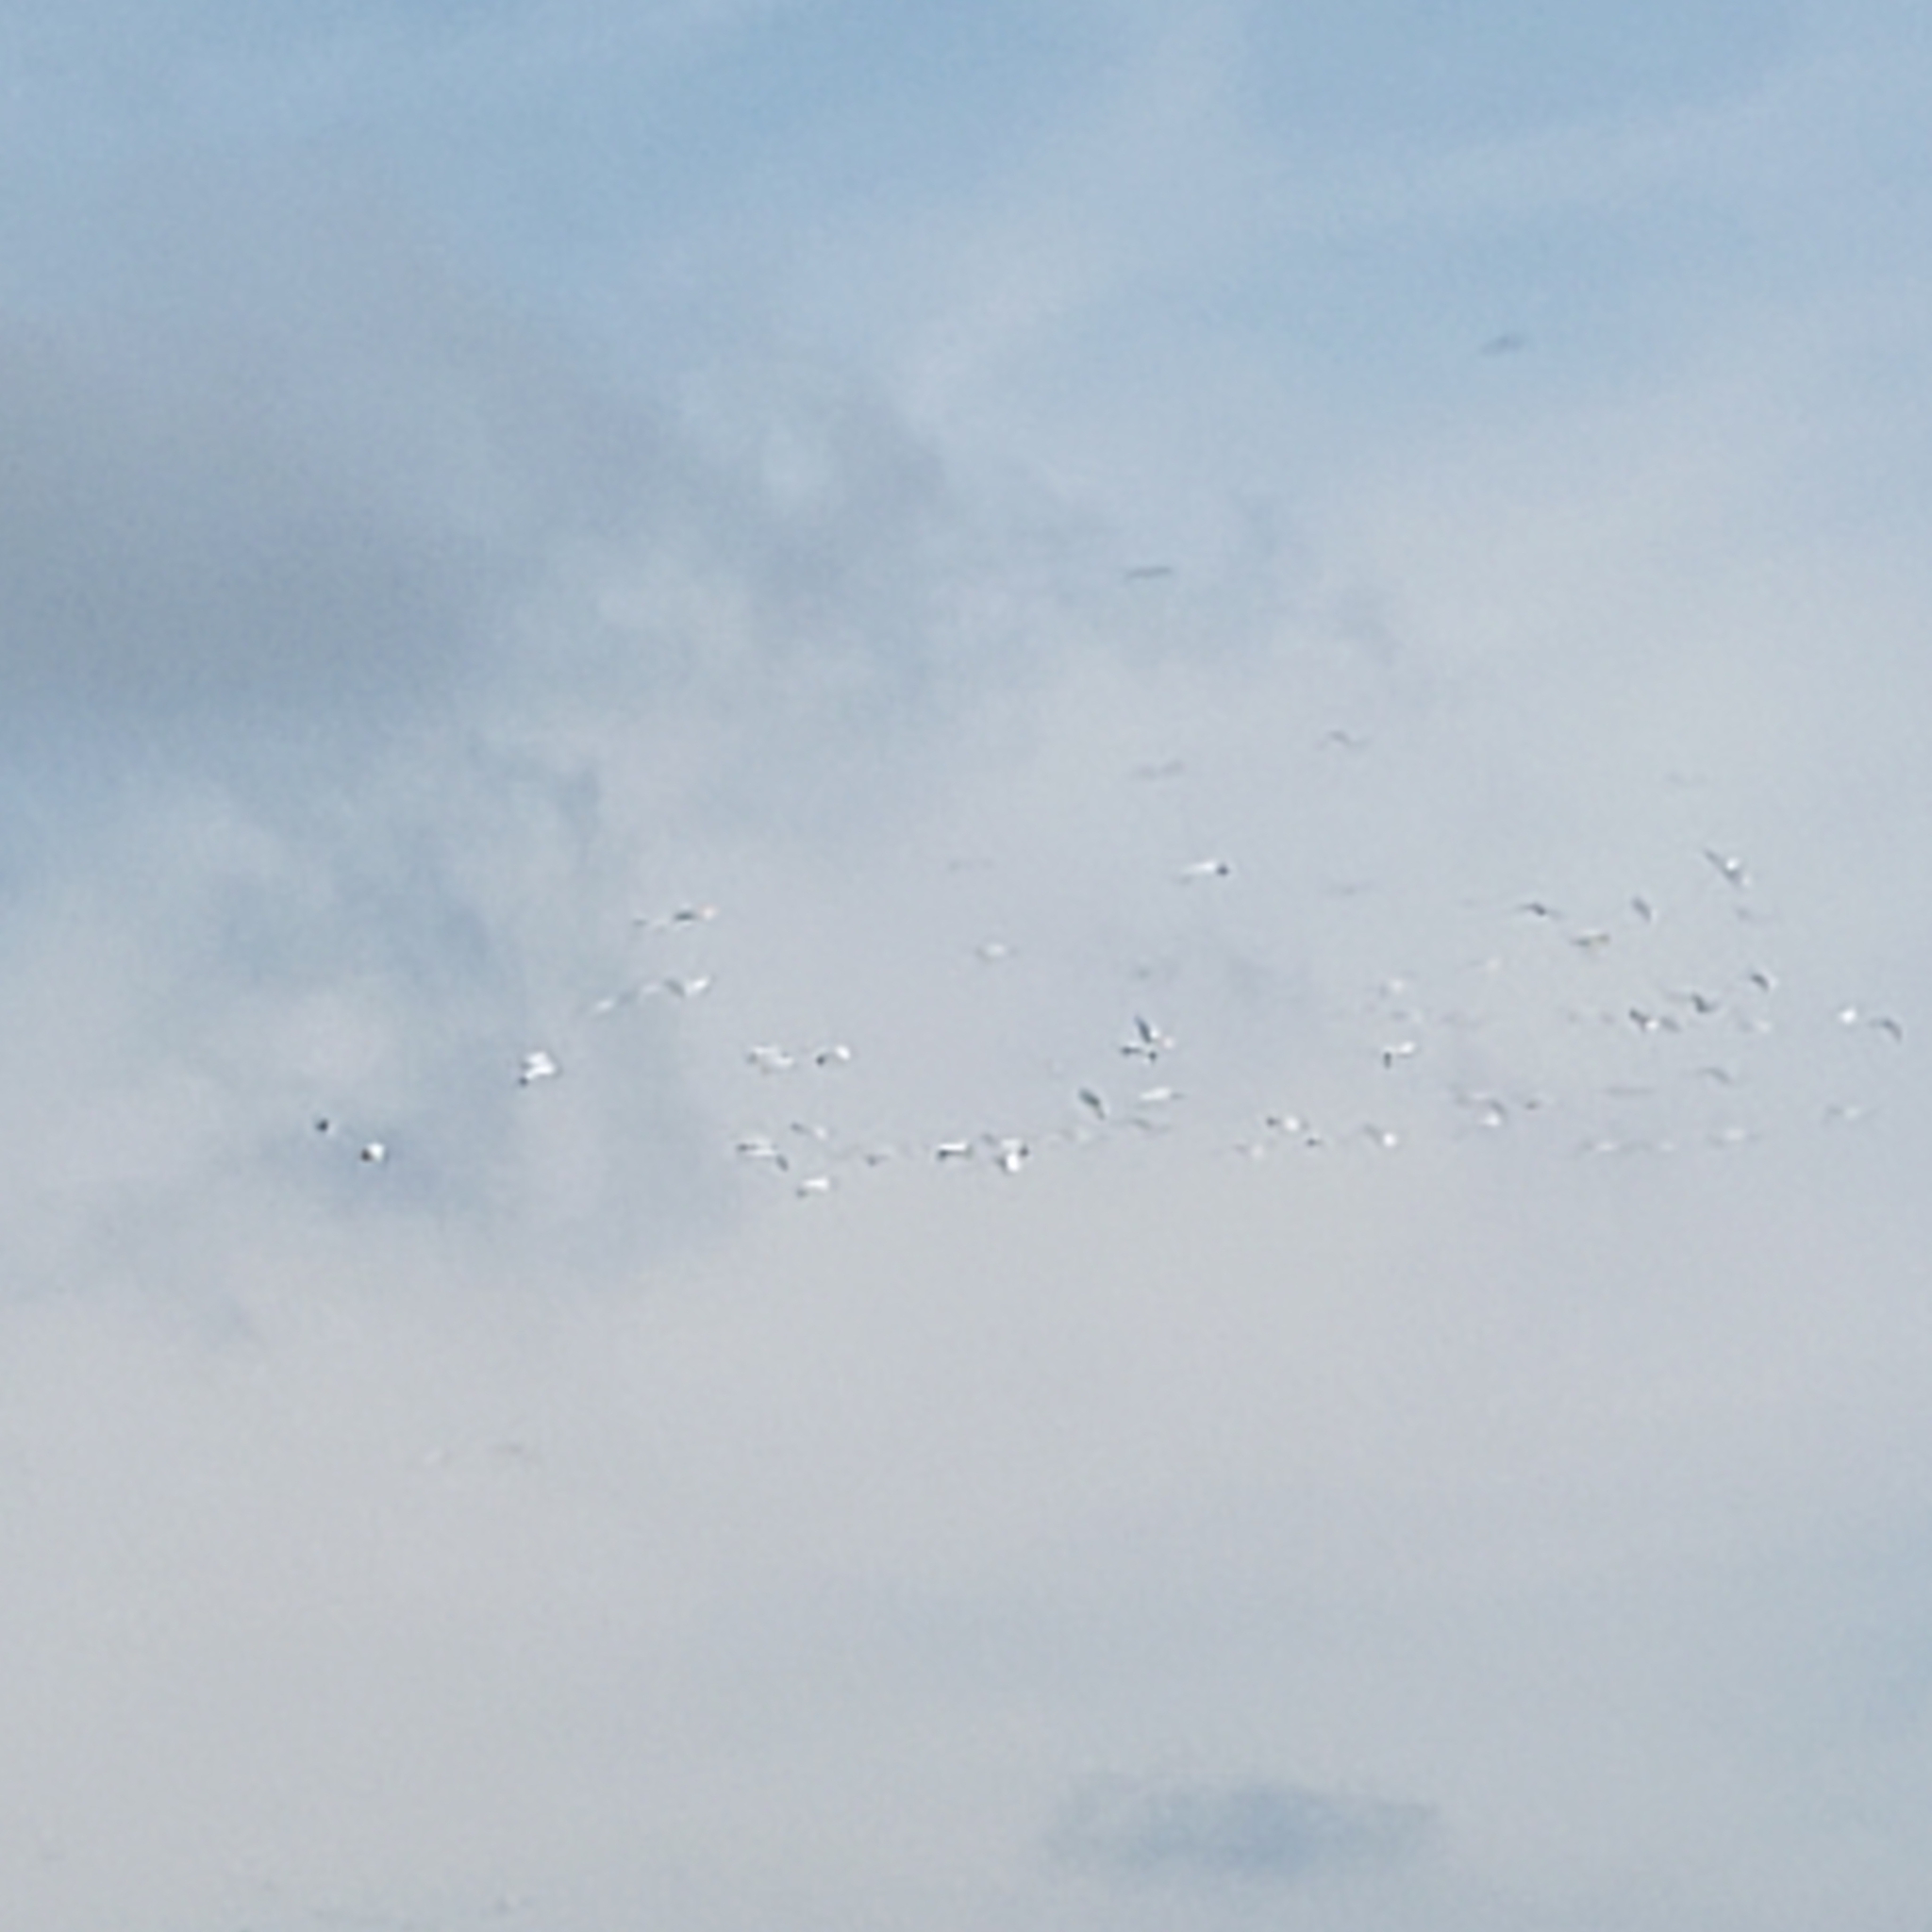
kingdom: Animalia
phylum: Chordata
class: Aves
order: Pelecaniformes
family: Pelecanidae
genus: Pelecanus
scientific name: Pelecanus erythrorhynchos
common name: American white pelican
